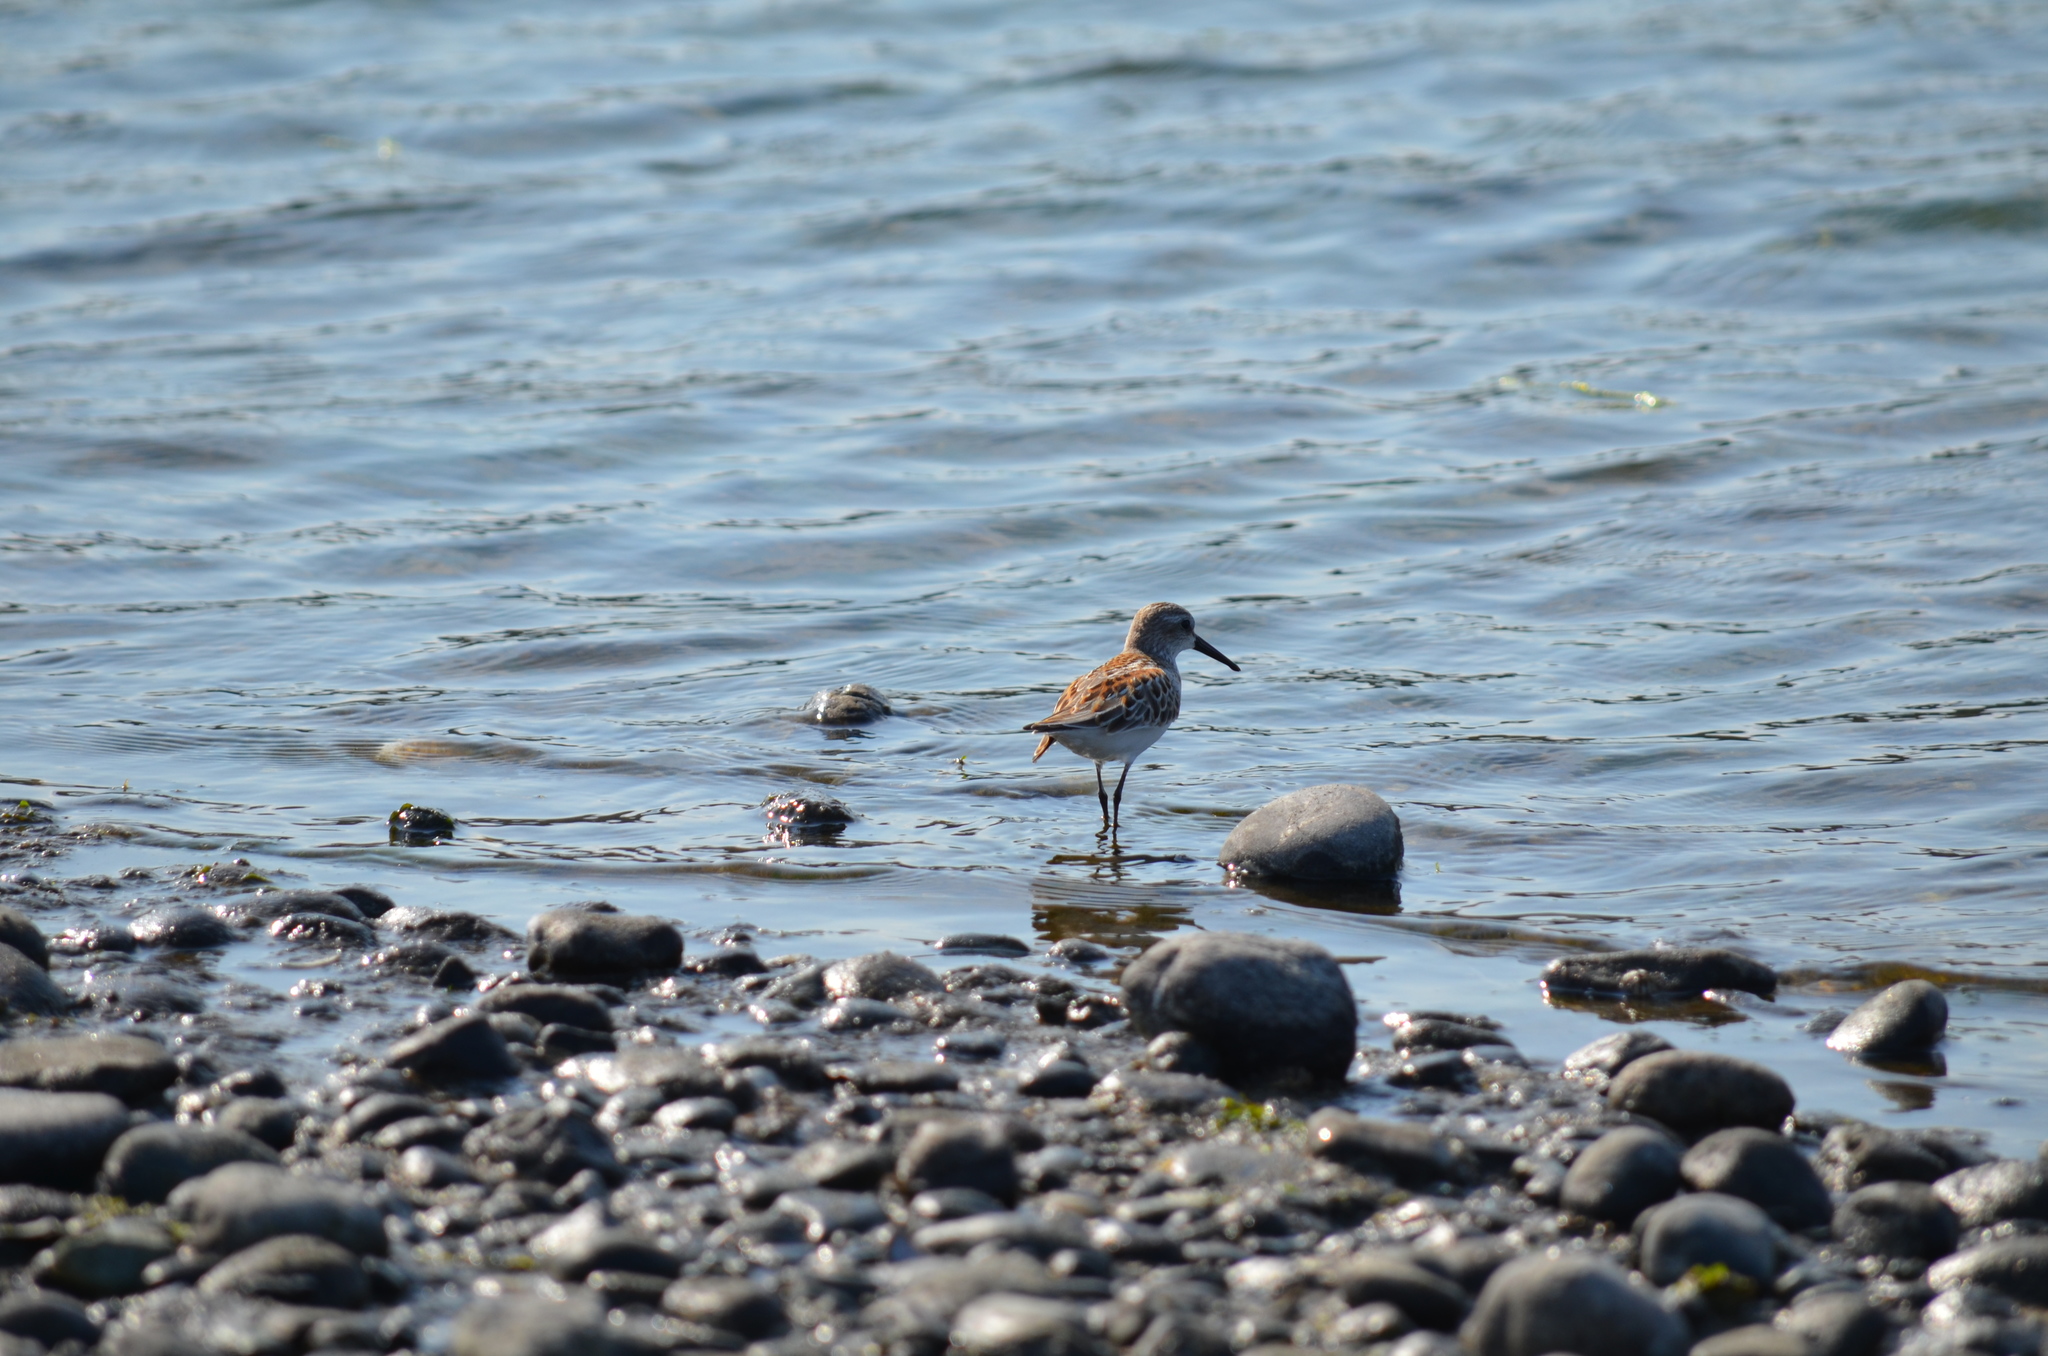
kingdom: Animalia
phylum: Chordata
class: Aves
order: Charadriiformes
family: Scolopacidae
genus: Calidris
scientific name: Calidris mauri
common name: Western sandpiper
